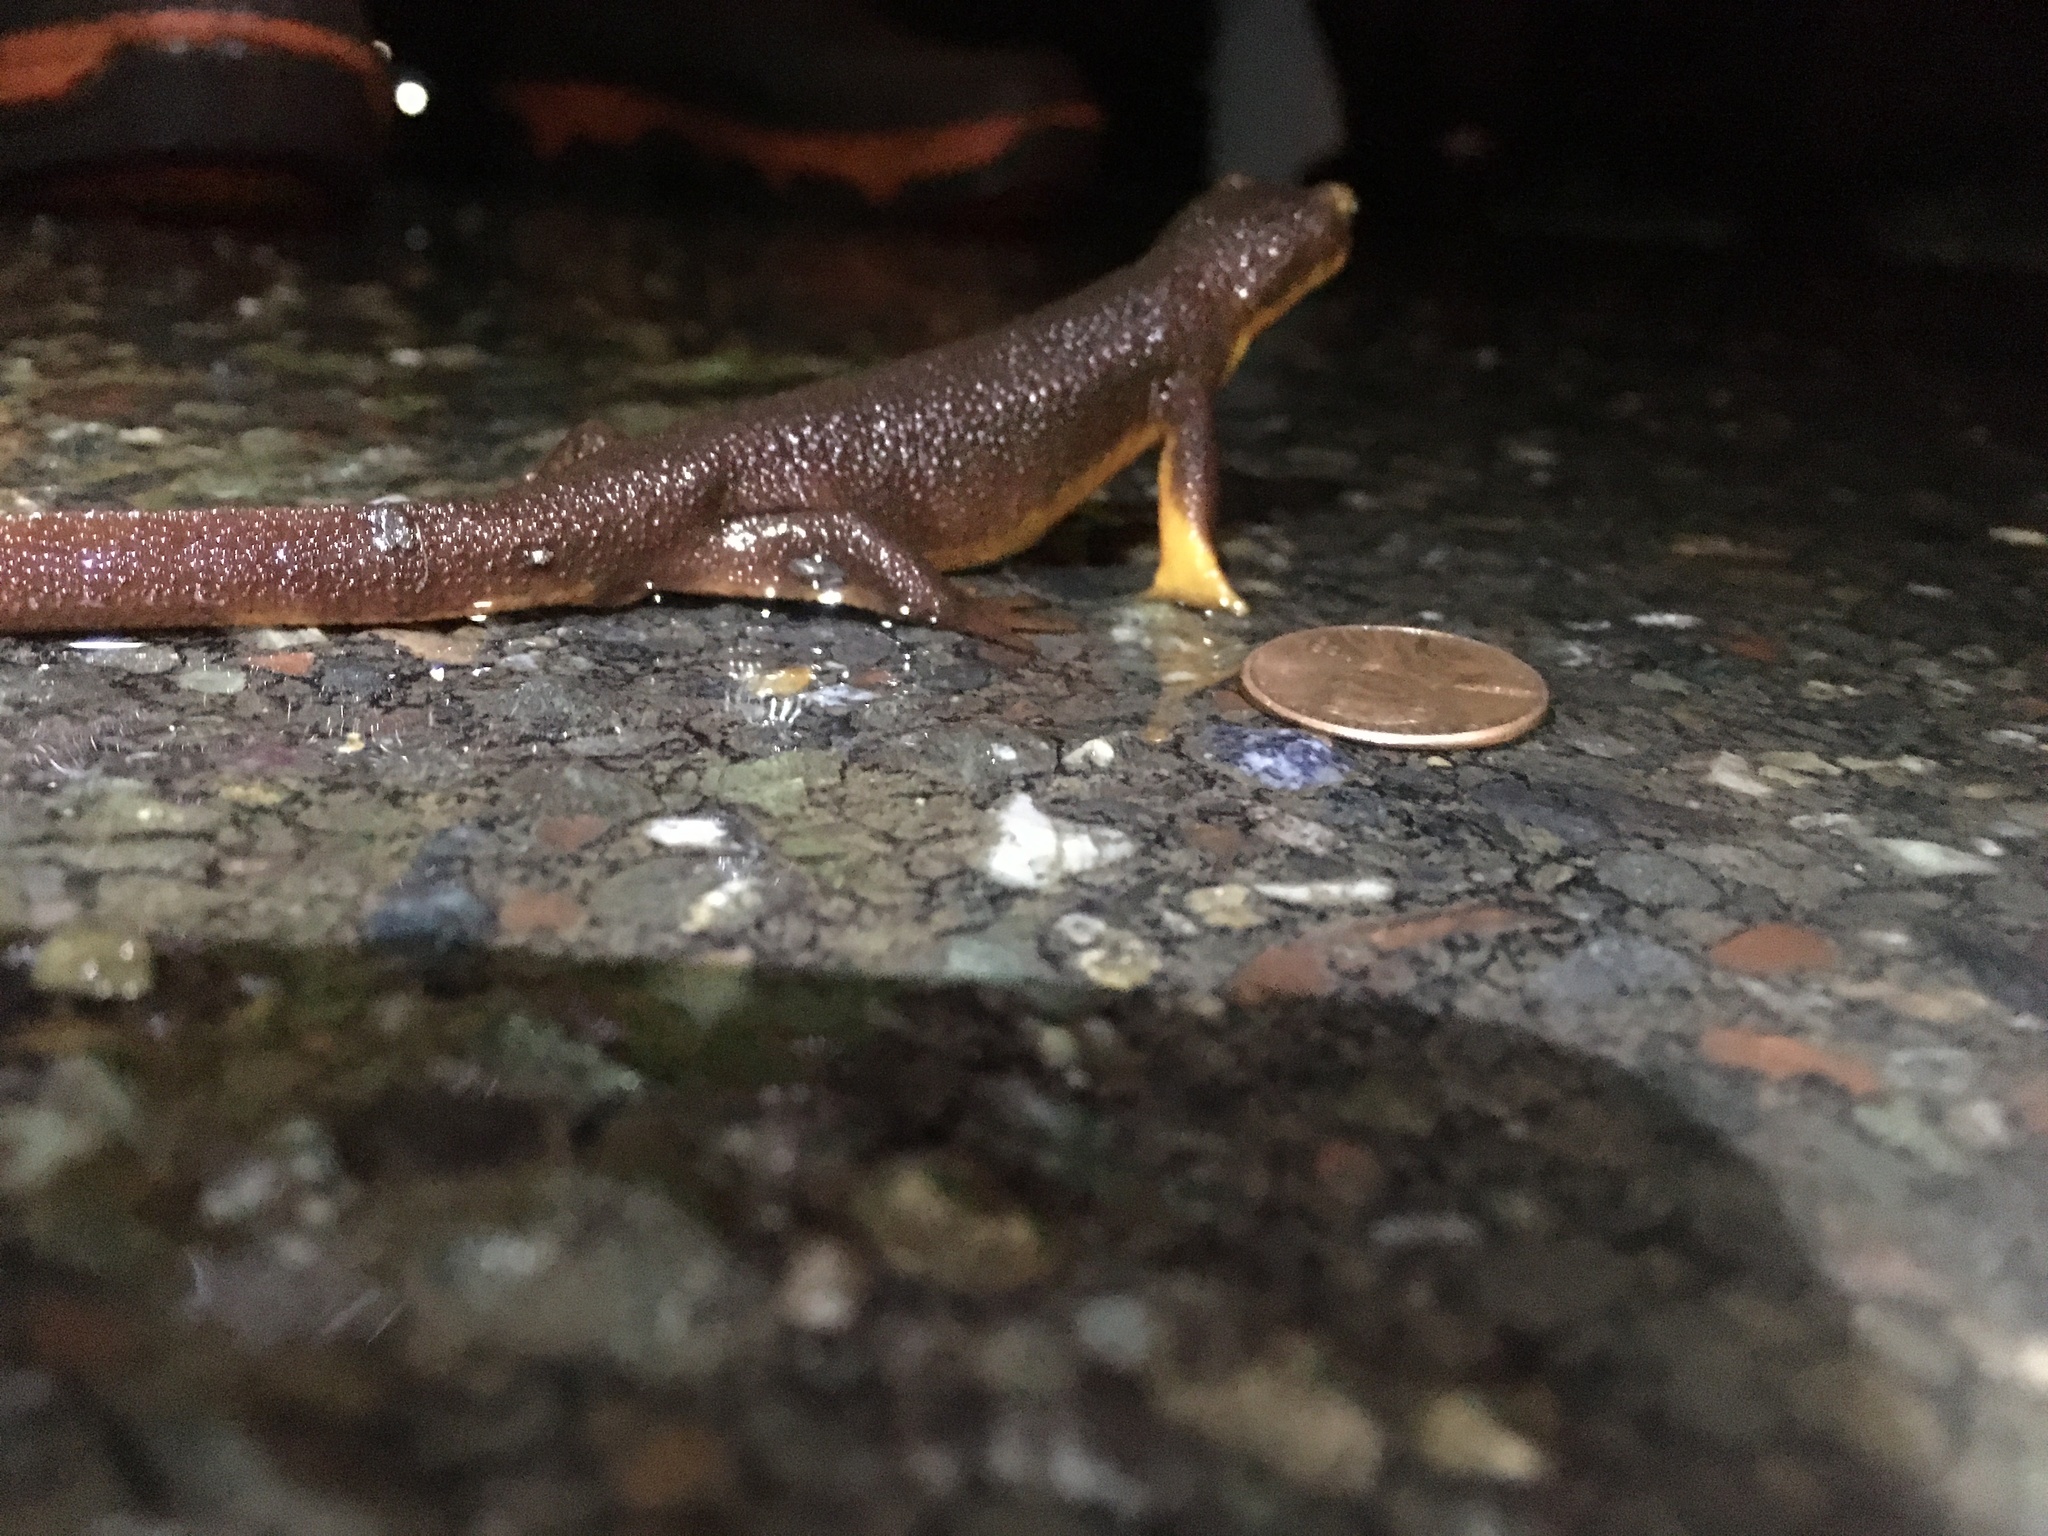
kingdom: Animalia
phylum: Chordata
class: Amphibia
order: Caudata
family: Salamandridae
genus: Taricha
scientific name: Taricha torosa
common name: California newt
